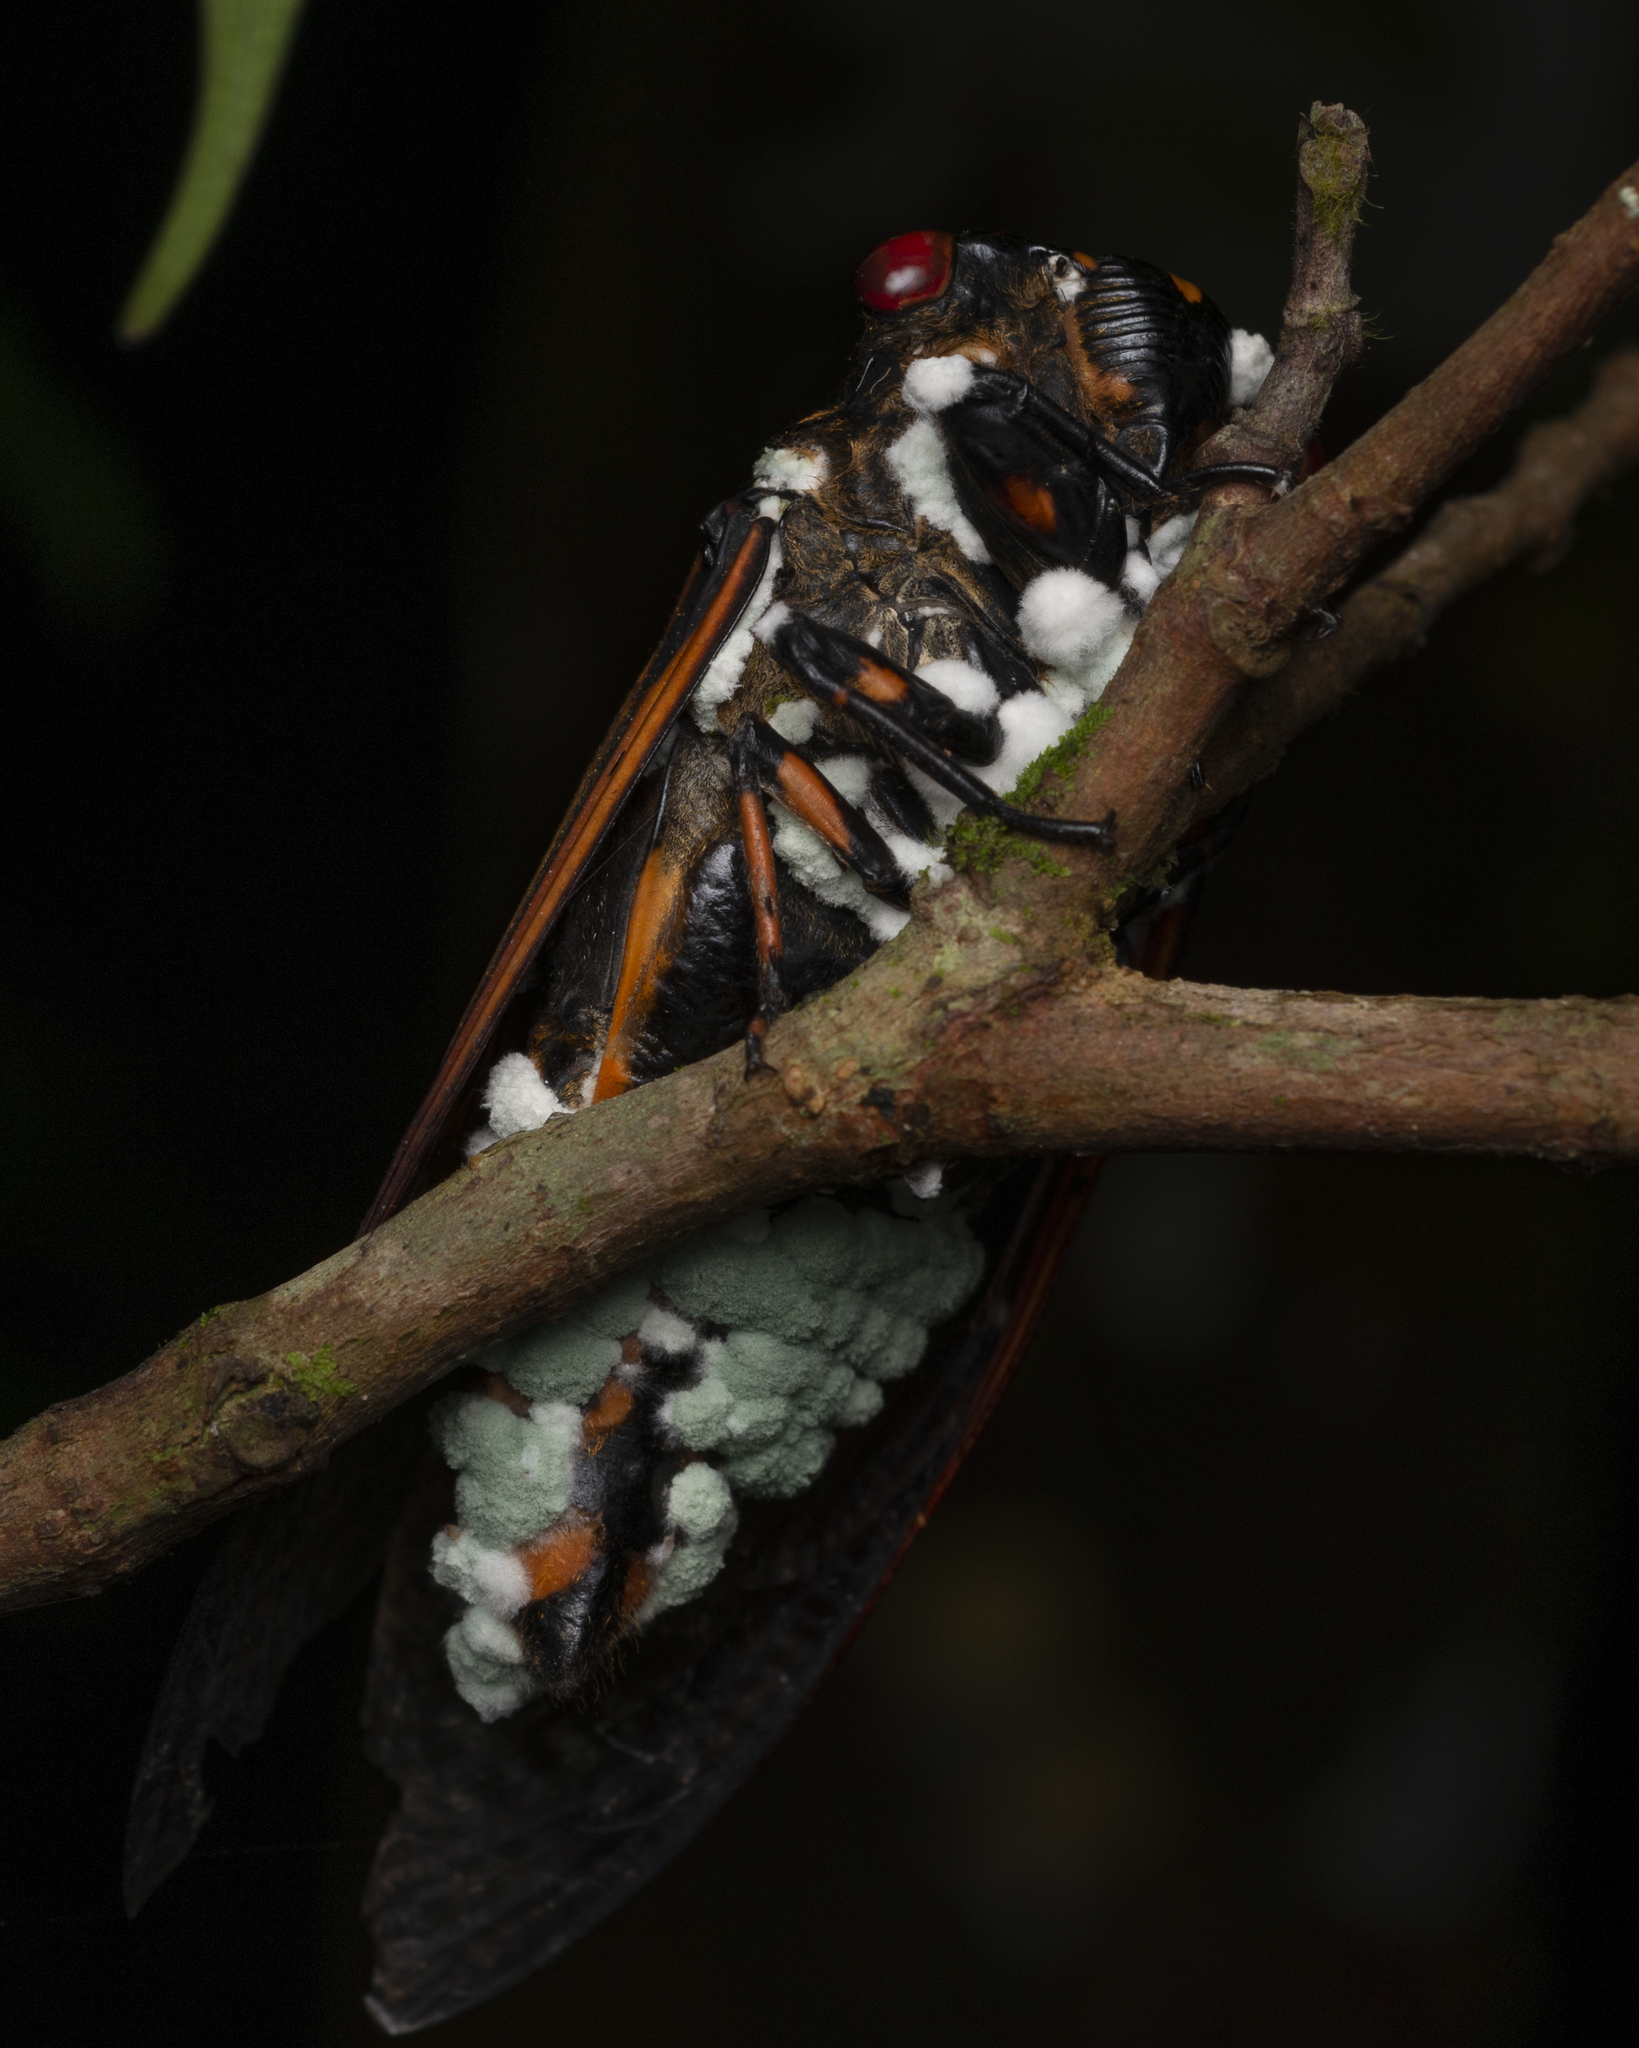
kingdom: Animalia
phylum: Arthropoda
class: Insecta
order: Hemiptera
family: Cicadidae
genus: Cryptotympana
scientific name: Cryptotympana mandarina
